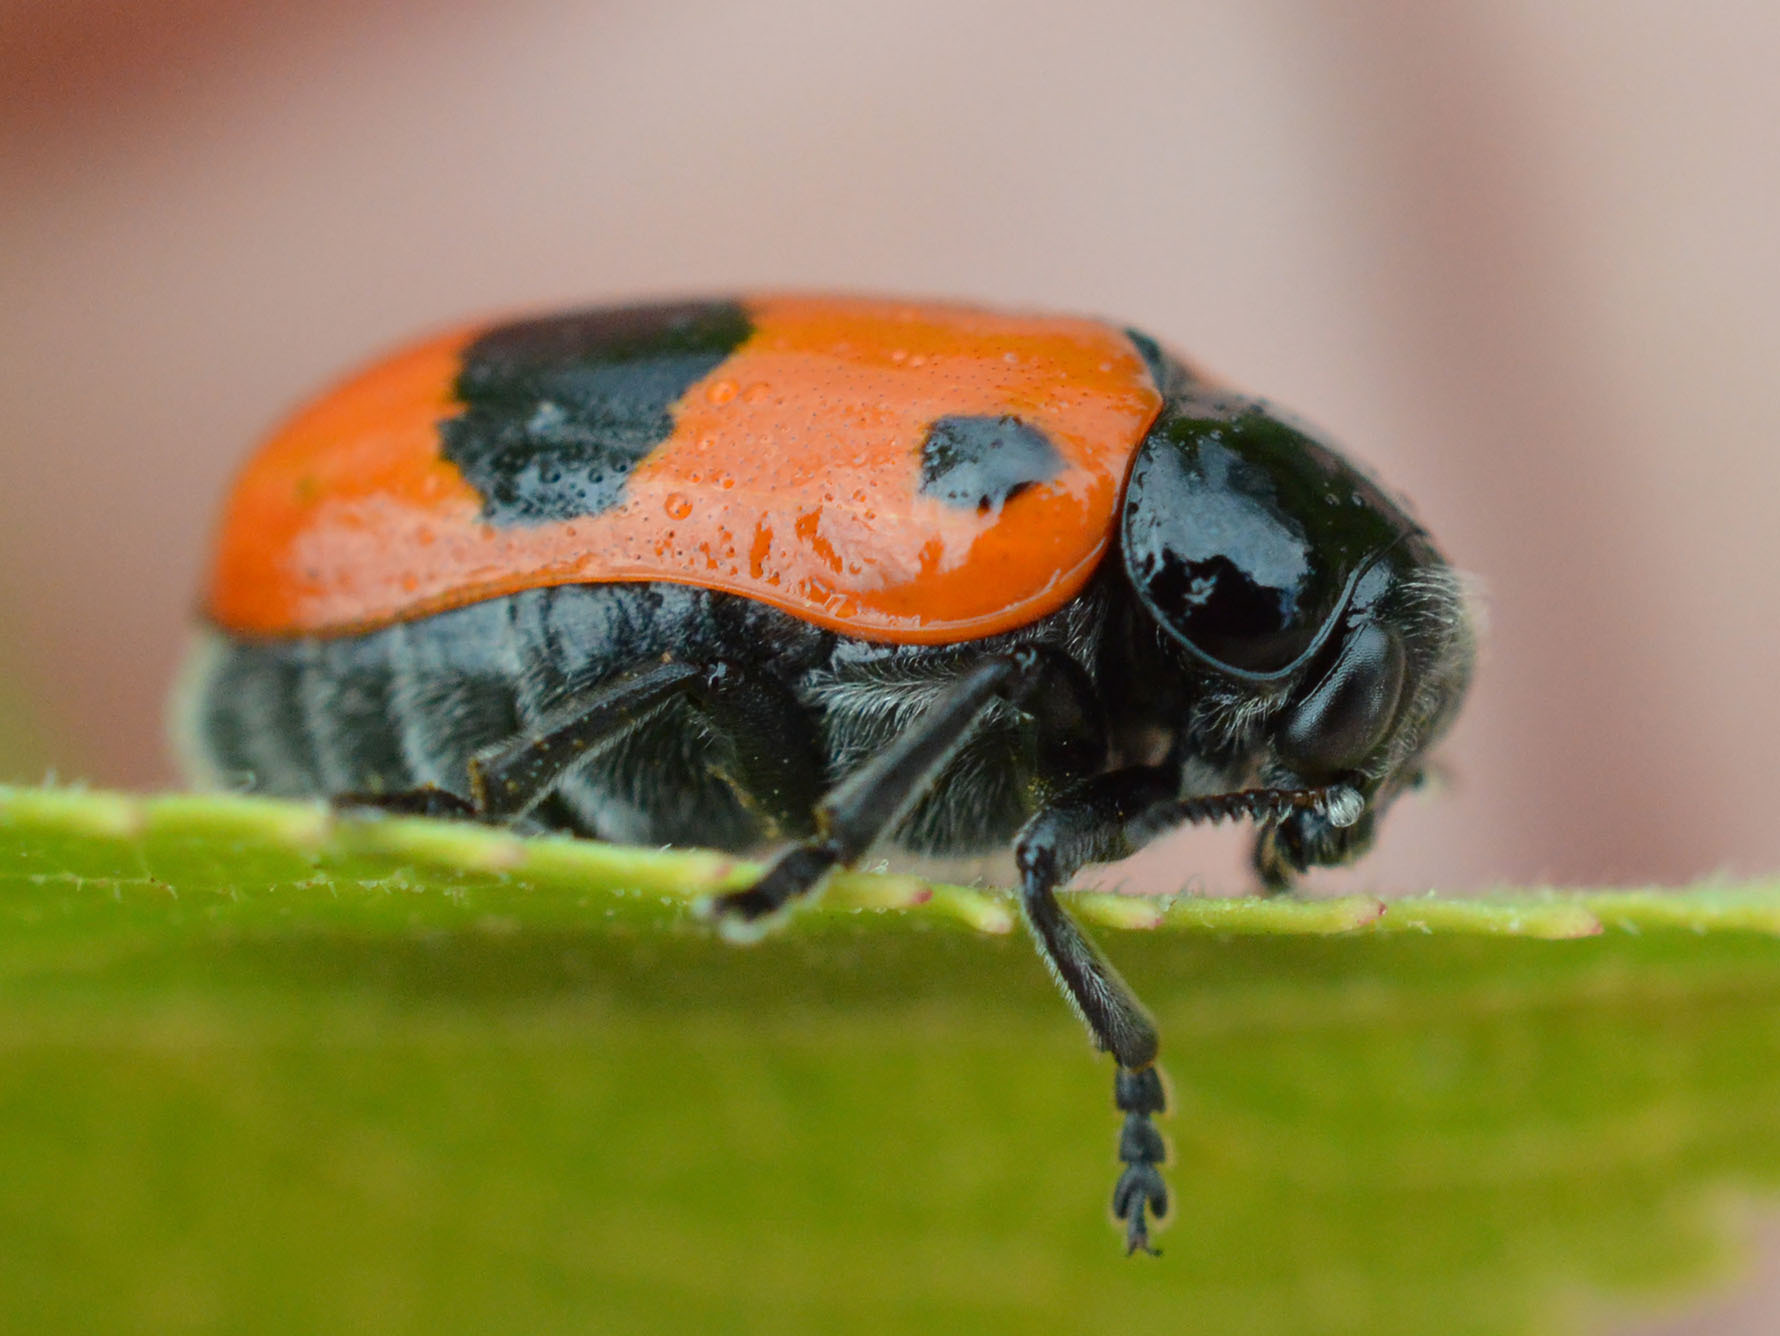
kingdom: Animalia
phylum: Arthropoda
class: Insecta
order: Coleoptera
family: Chrysomelidae
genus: Clytra
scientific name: Clytra laeviuscula
